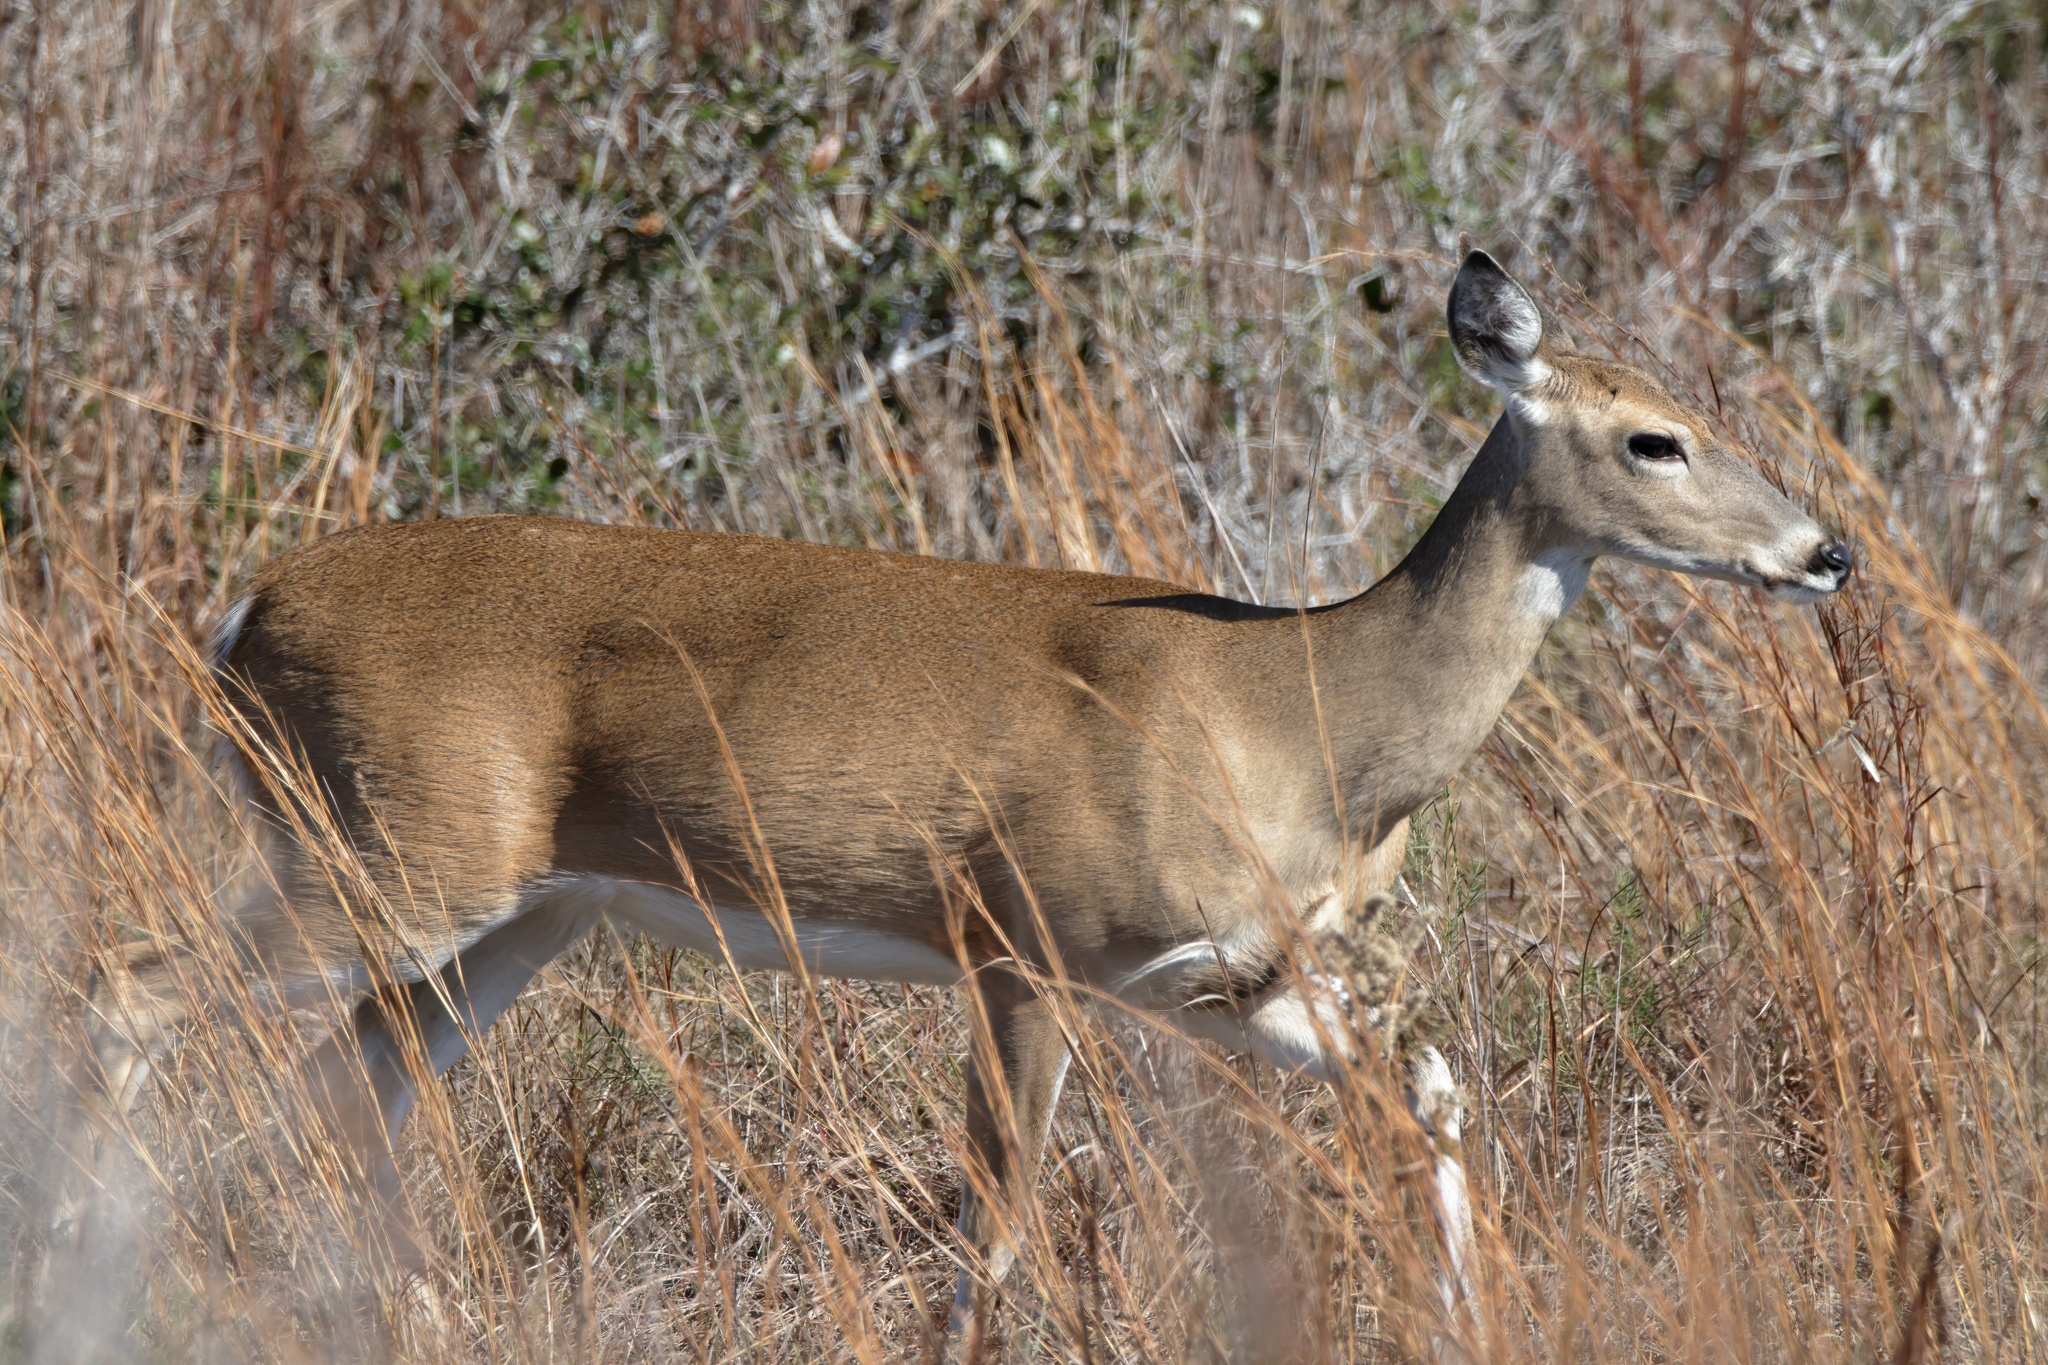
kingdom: Animalia
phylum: Chordata
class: Mammalia
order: Artiodactyla
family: Cervidae
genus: Odocoileus
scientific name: Odocoileus virginianus
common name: White-tailed deer
